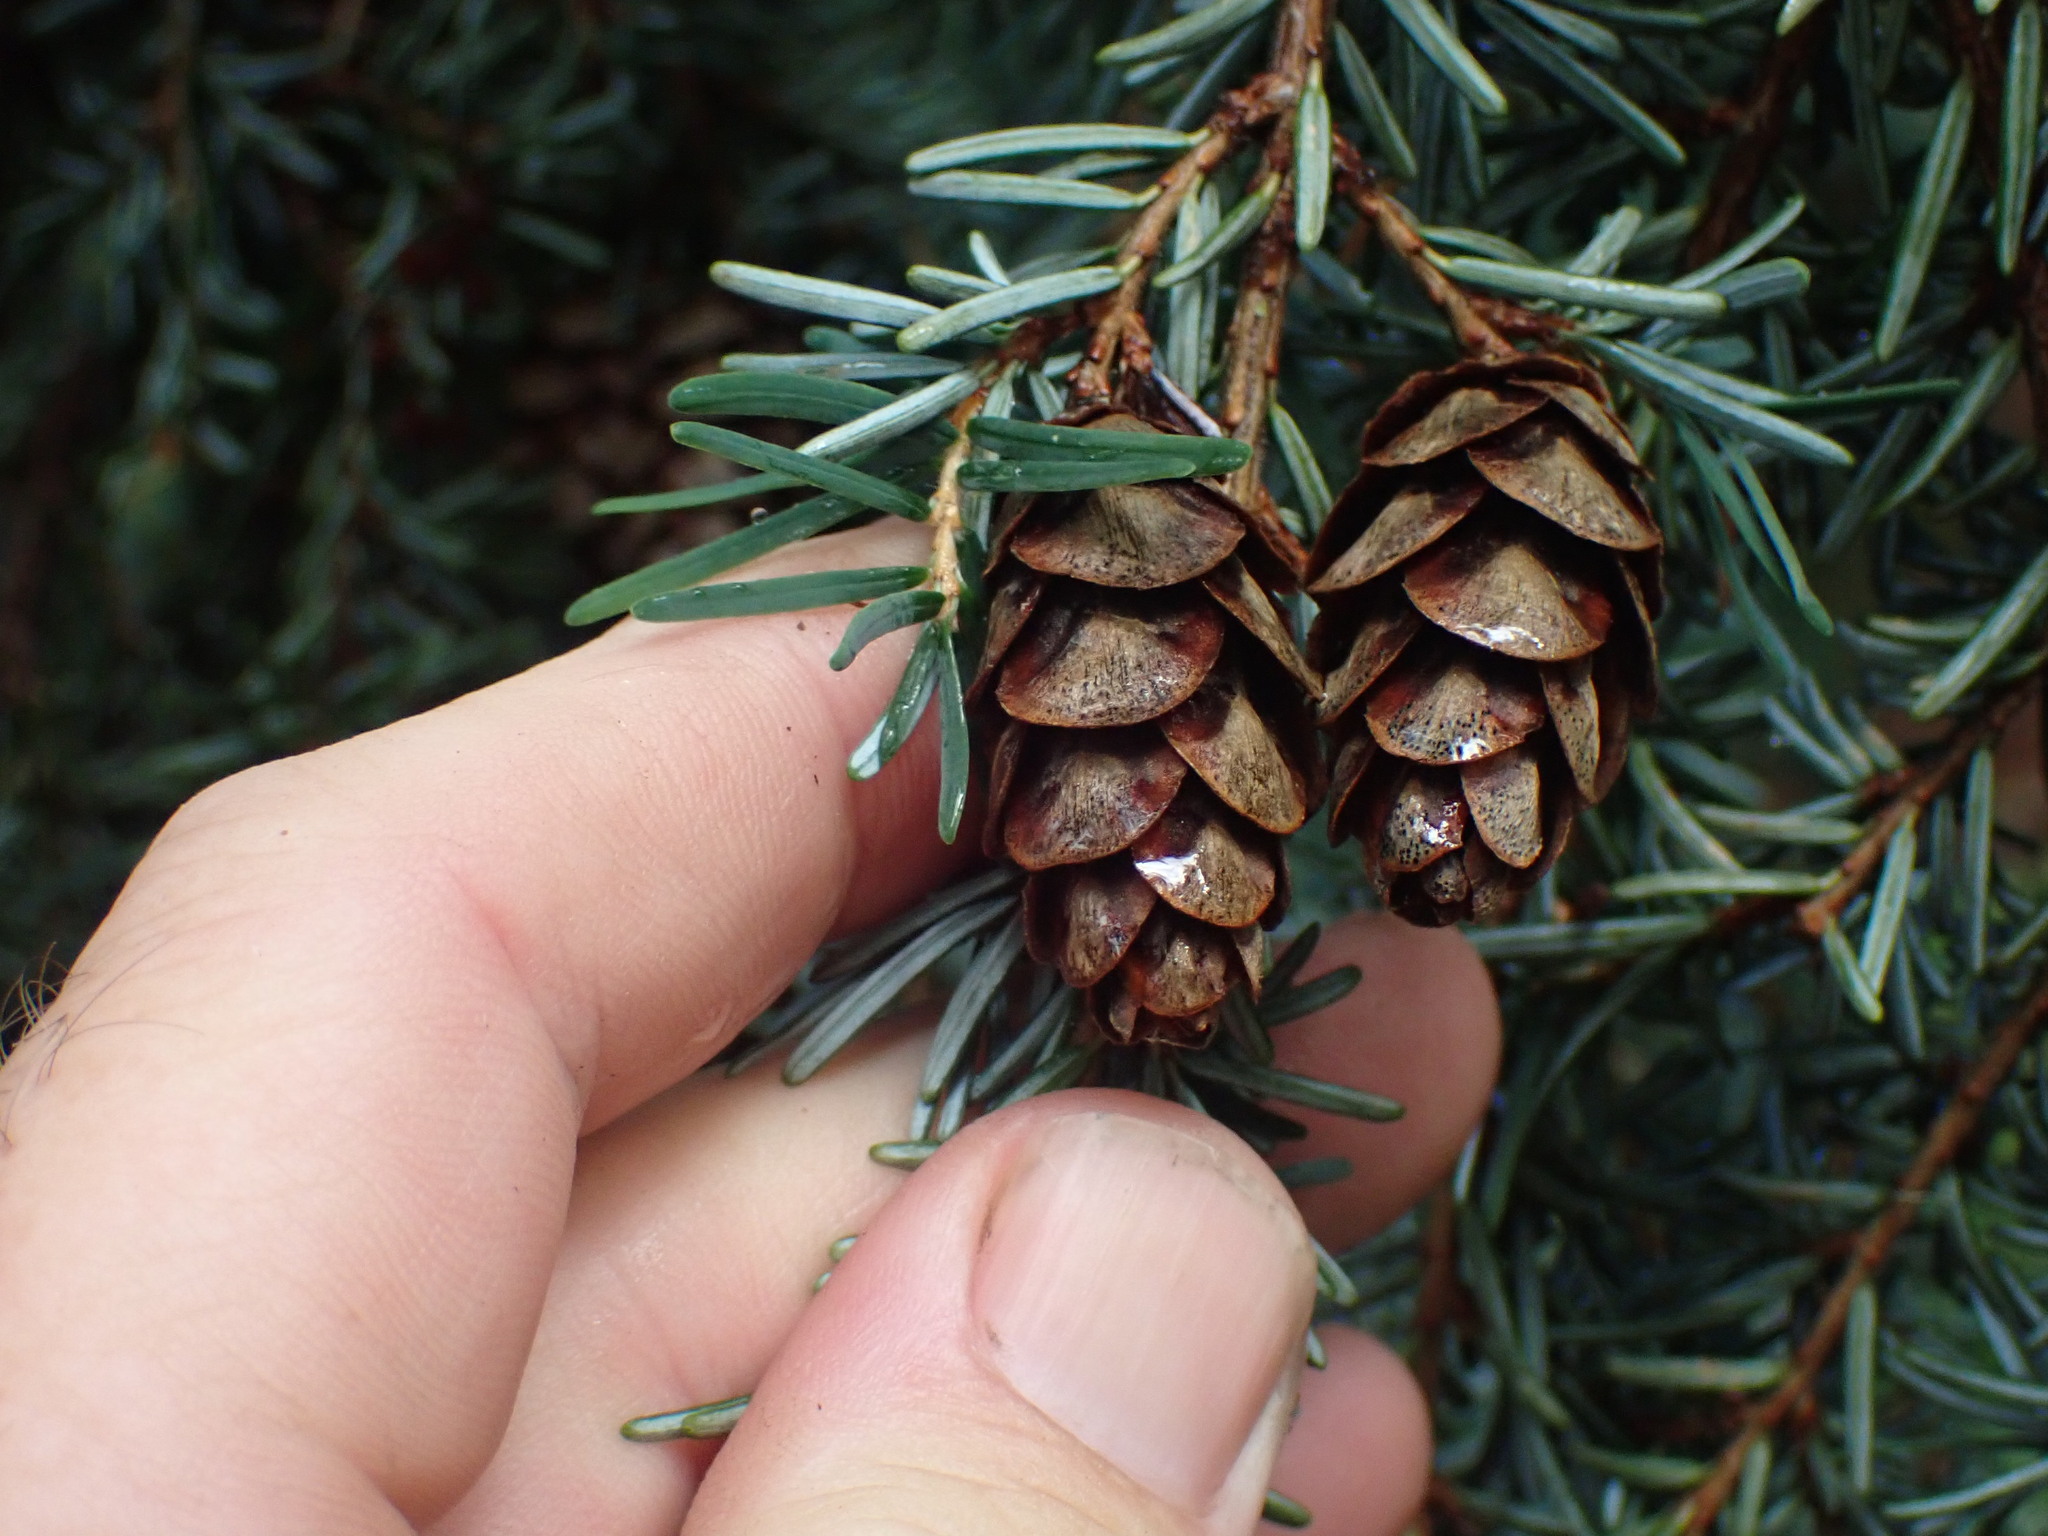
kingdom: Plantae
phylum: Tracheophyta
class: Pinopsida
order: Pinales
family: Pinaceae
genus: Tsuga
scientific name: Tsuga heterophylla
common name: Western hemlock
